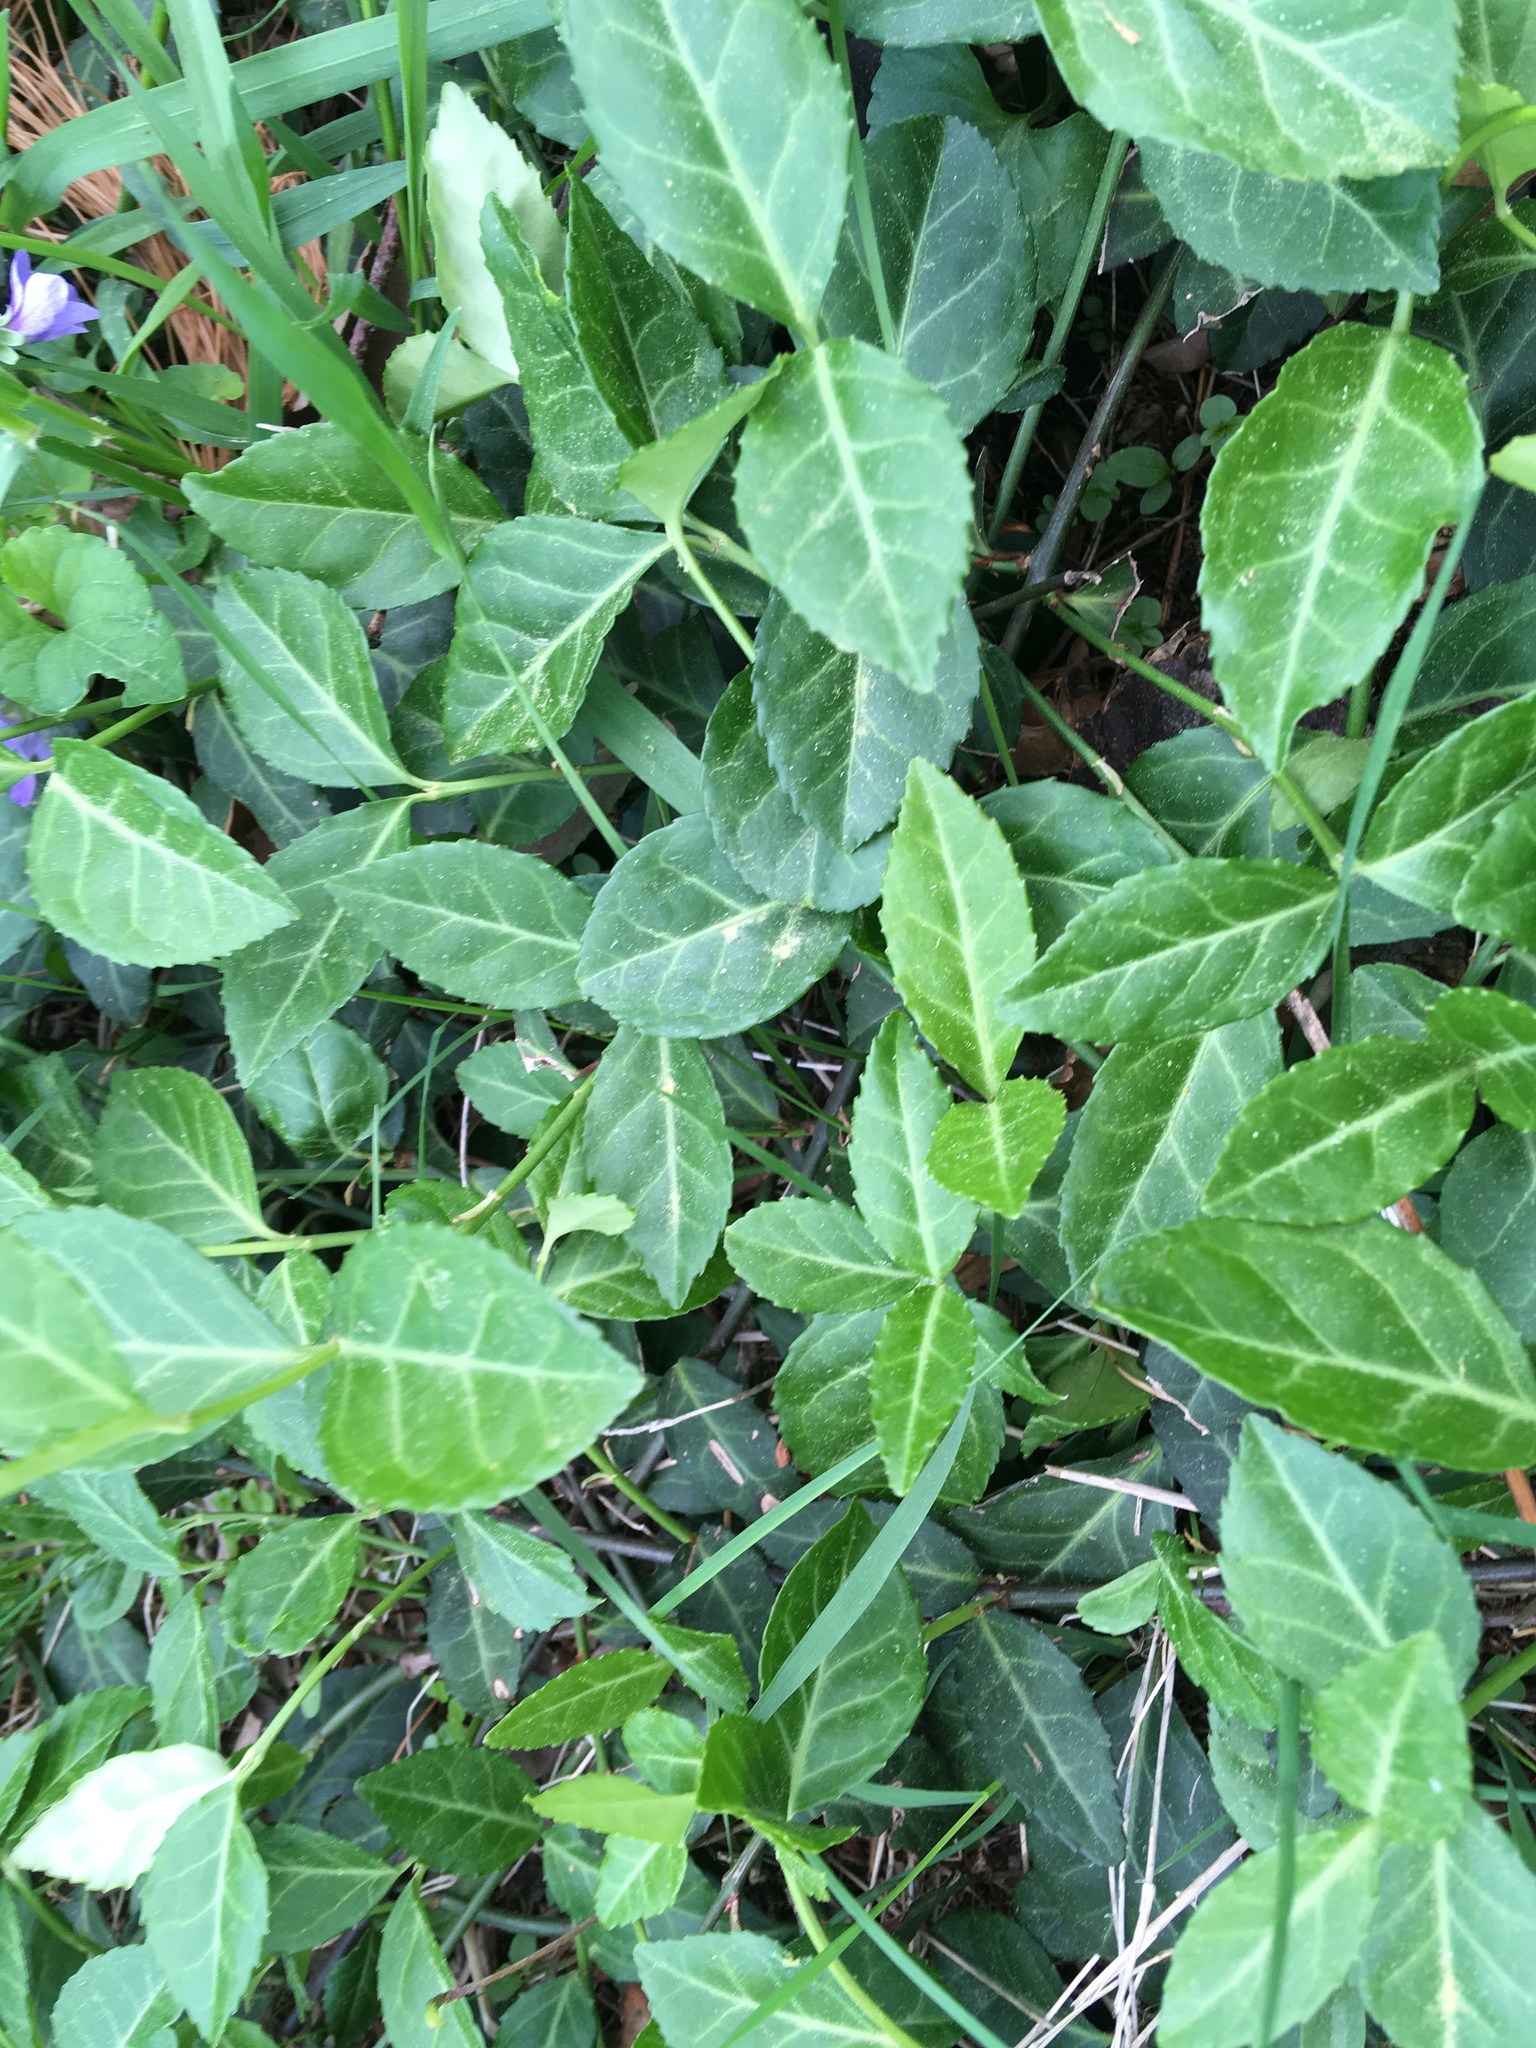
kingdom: Plantae
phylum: Tracheophyta
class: Magnoliopsida
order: Celastrales
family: Celastraceae
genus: Euonymus
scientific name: Euonymus fortunei
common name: Climbing euonymus
